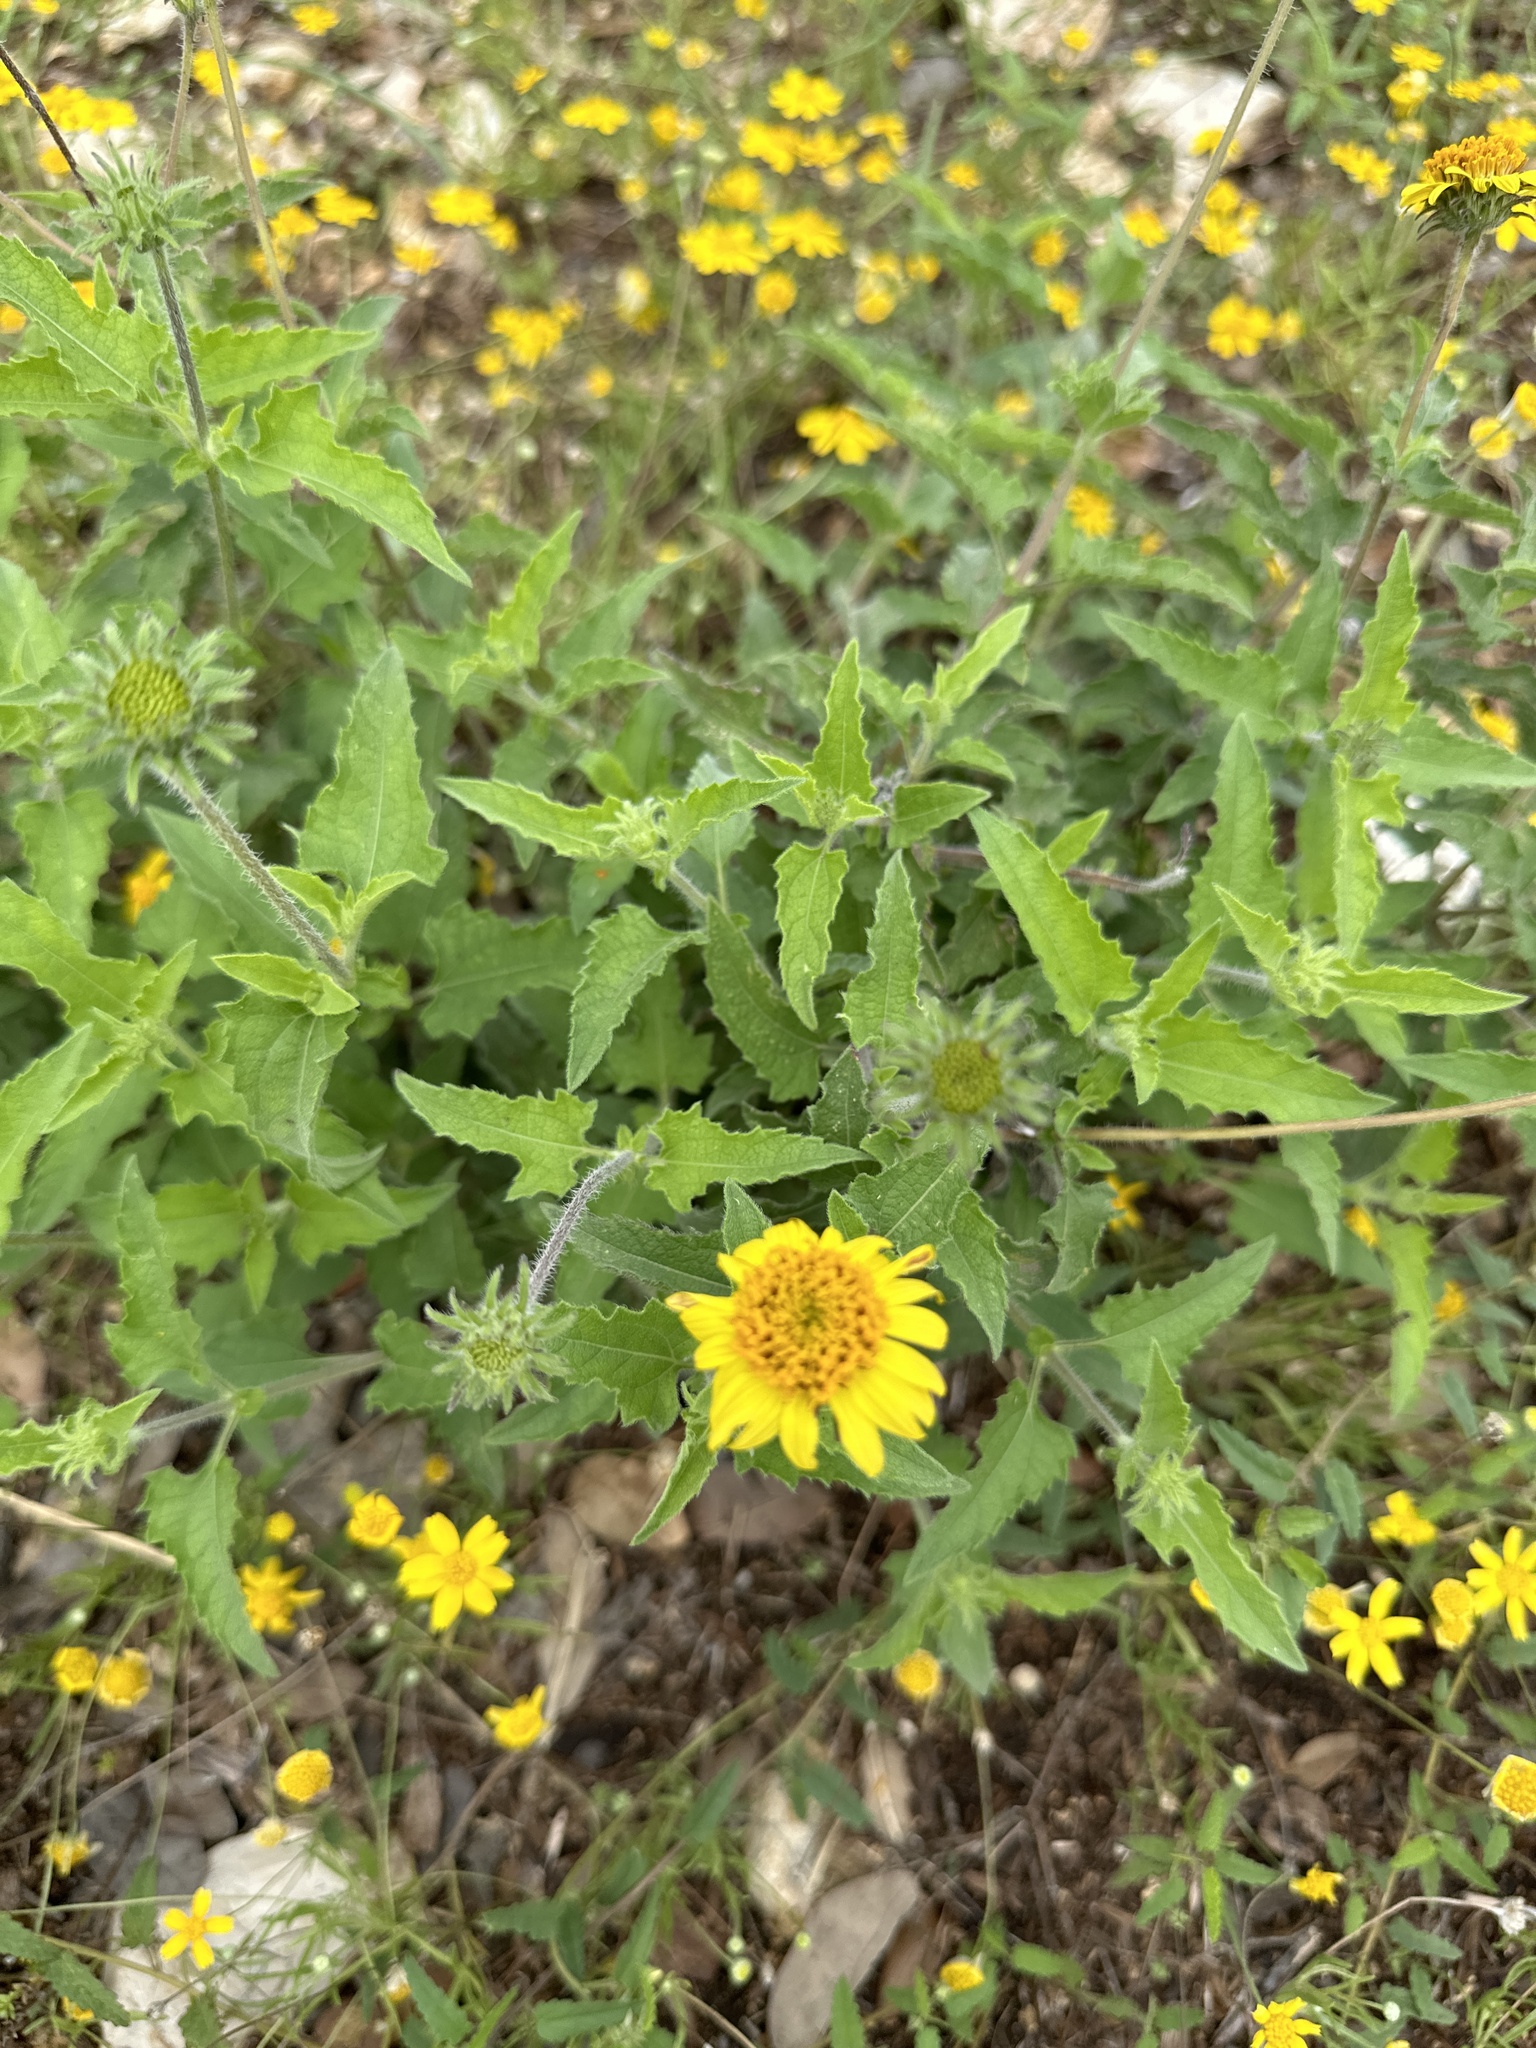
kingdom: Plantae
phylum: Tracheophyta
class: Magnoliopsida
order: Asterales
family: Asteraceae
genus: Simsia
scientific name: Simsia calva
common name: Awnless bush-sunflower
